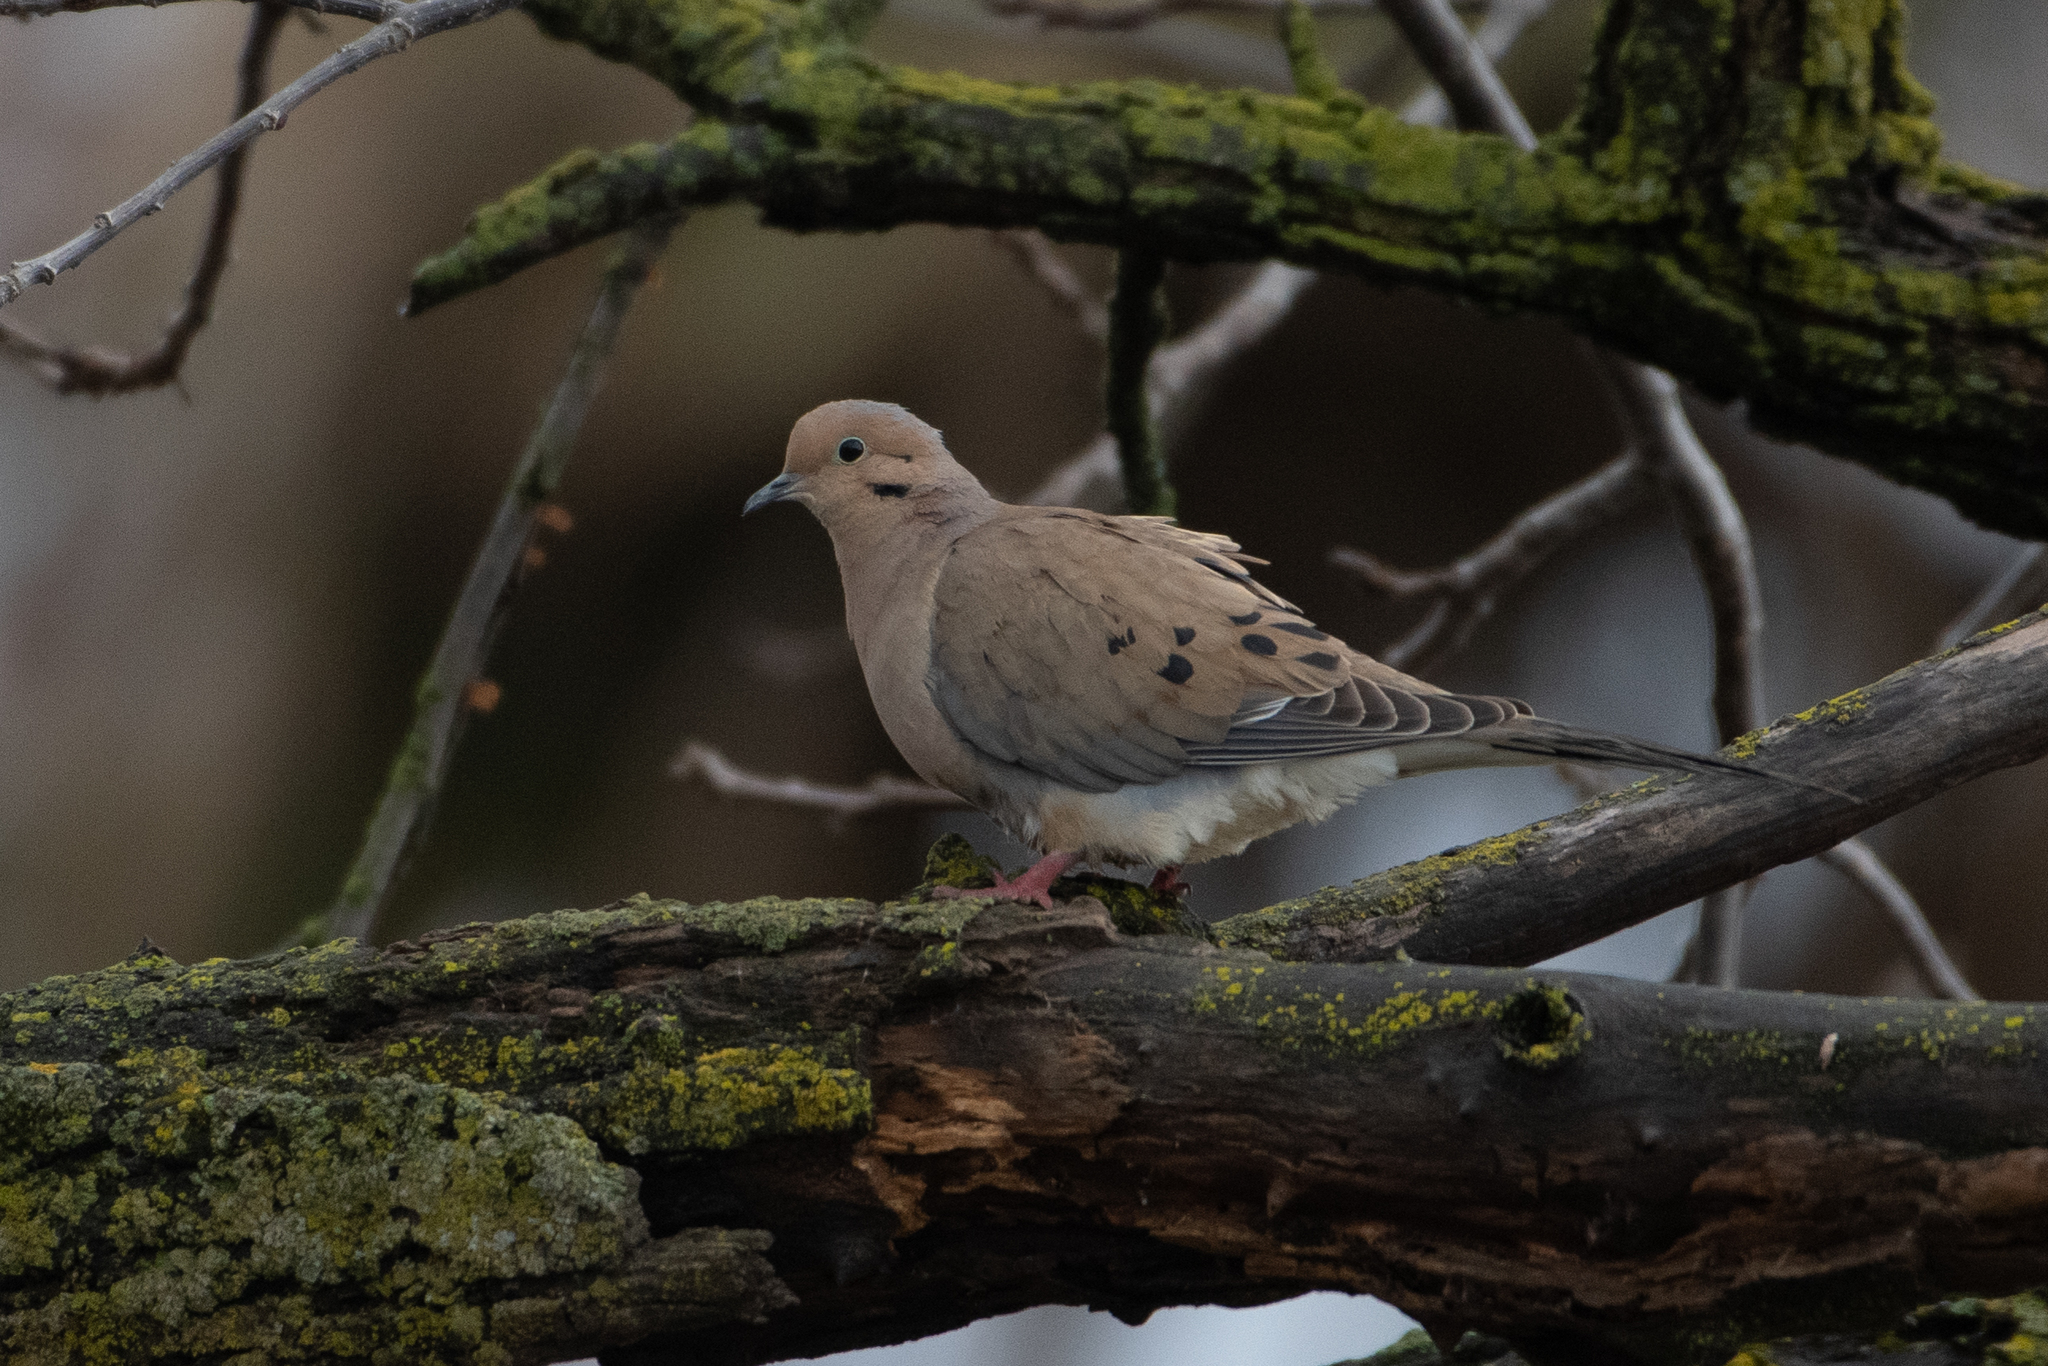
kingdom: Animalia
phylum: Chordata
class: Aves
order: Columbiformes
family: Columbidae
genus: Zenaida
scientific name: Zenaida macroura
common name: Mourning dove
